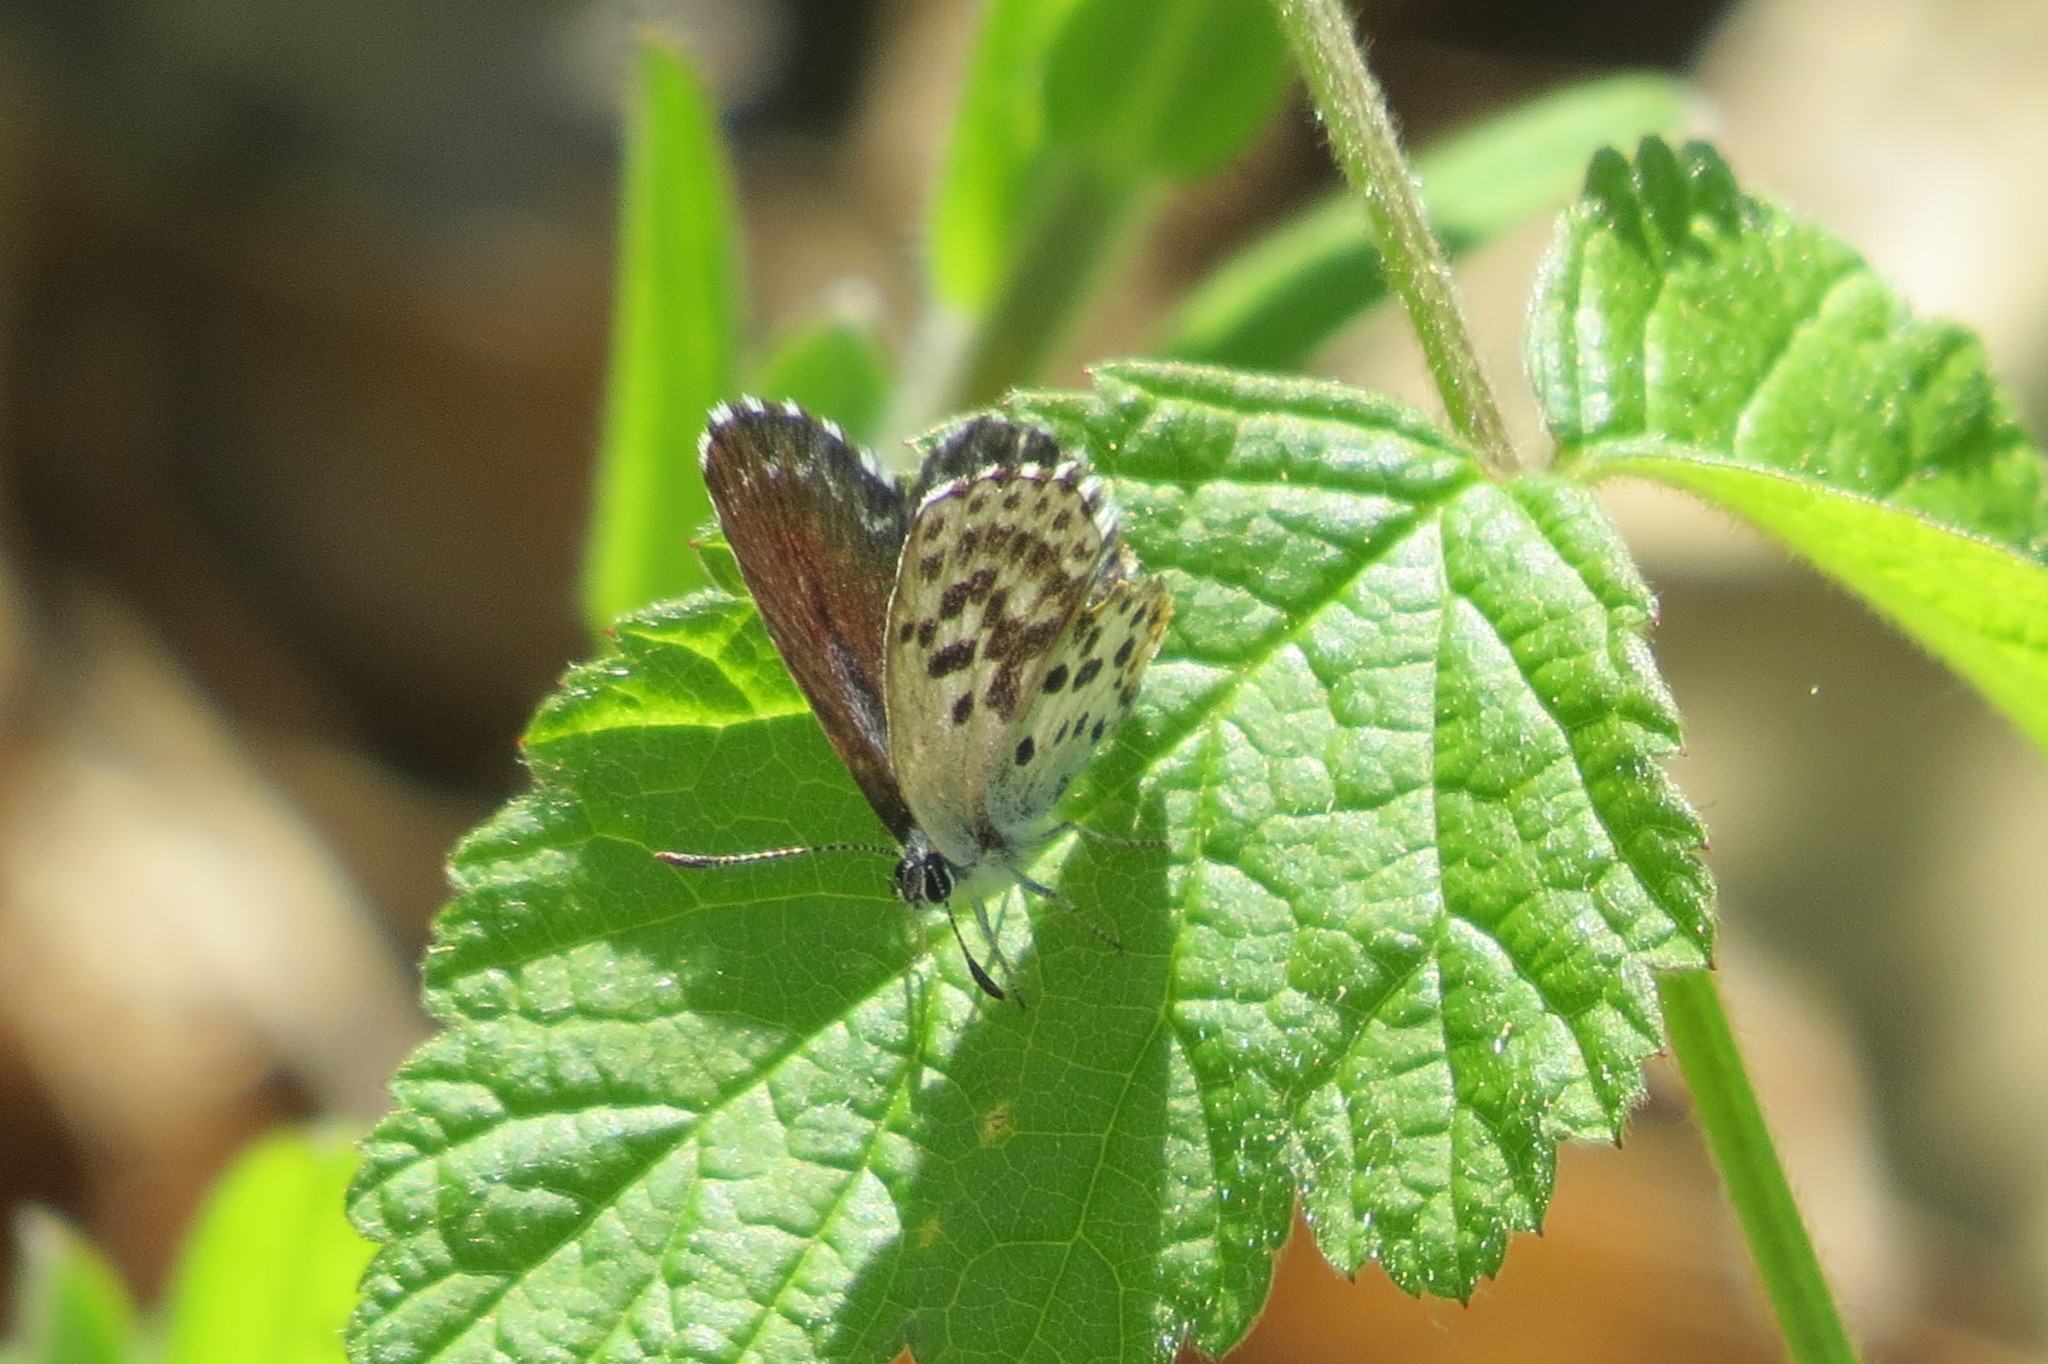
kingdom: Animalia
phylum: Arthropoda
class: Insecta
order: Lepidoptera
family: Lycaenidae
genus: Scolitantides
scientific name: Scolitantides orion
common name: Chequered blue
